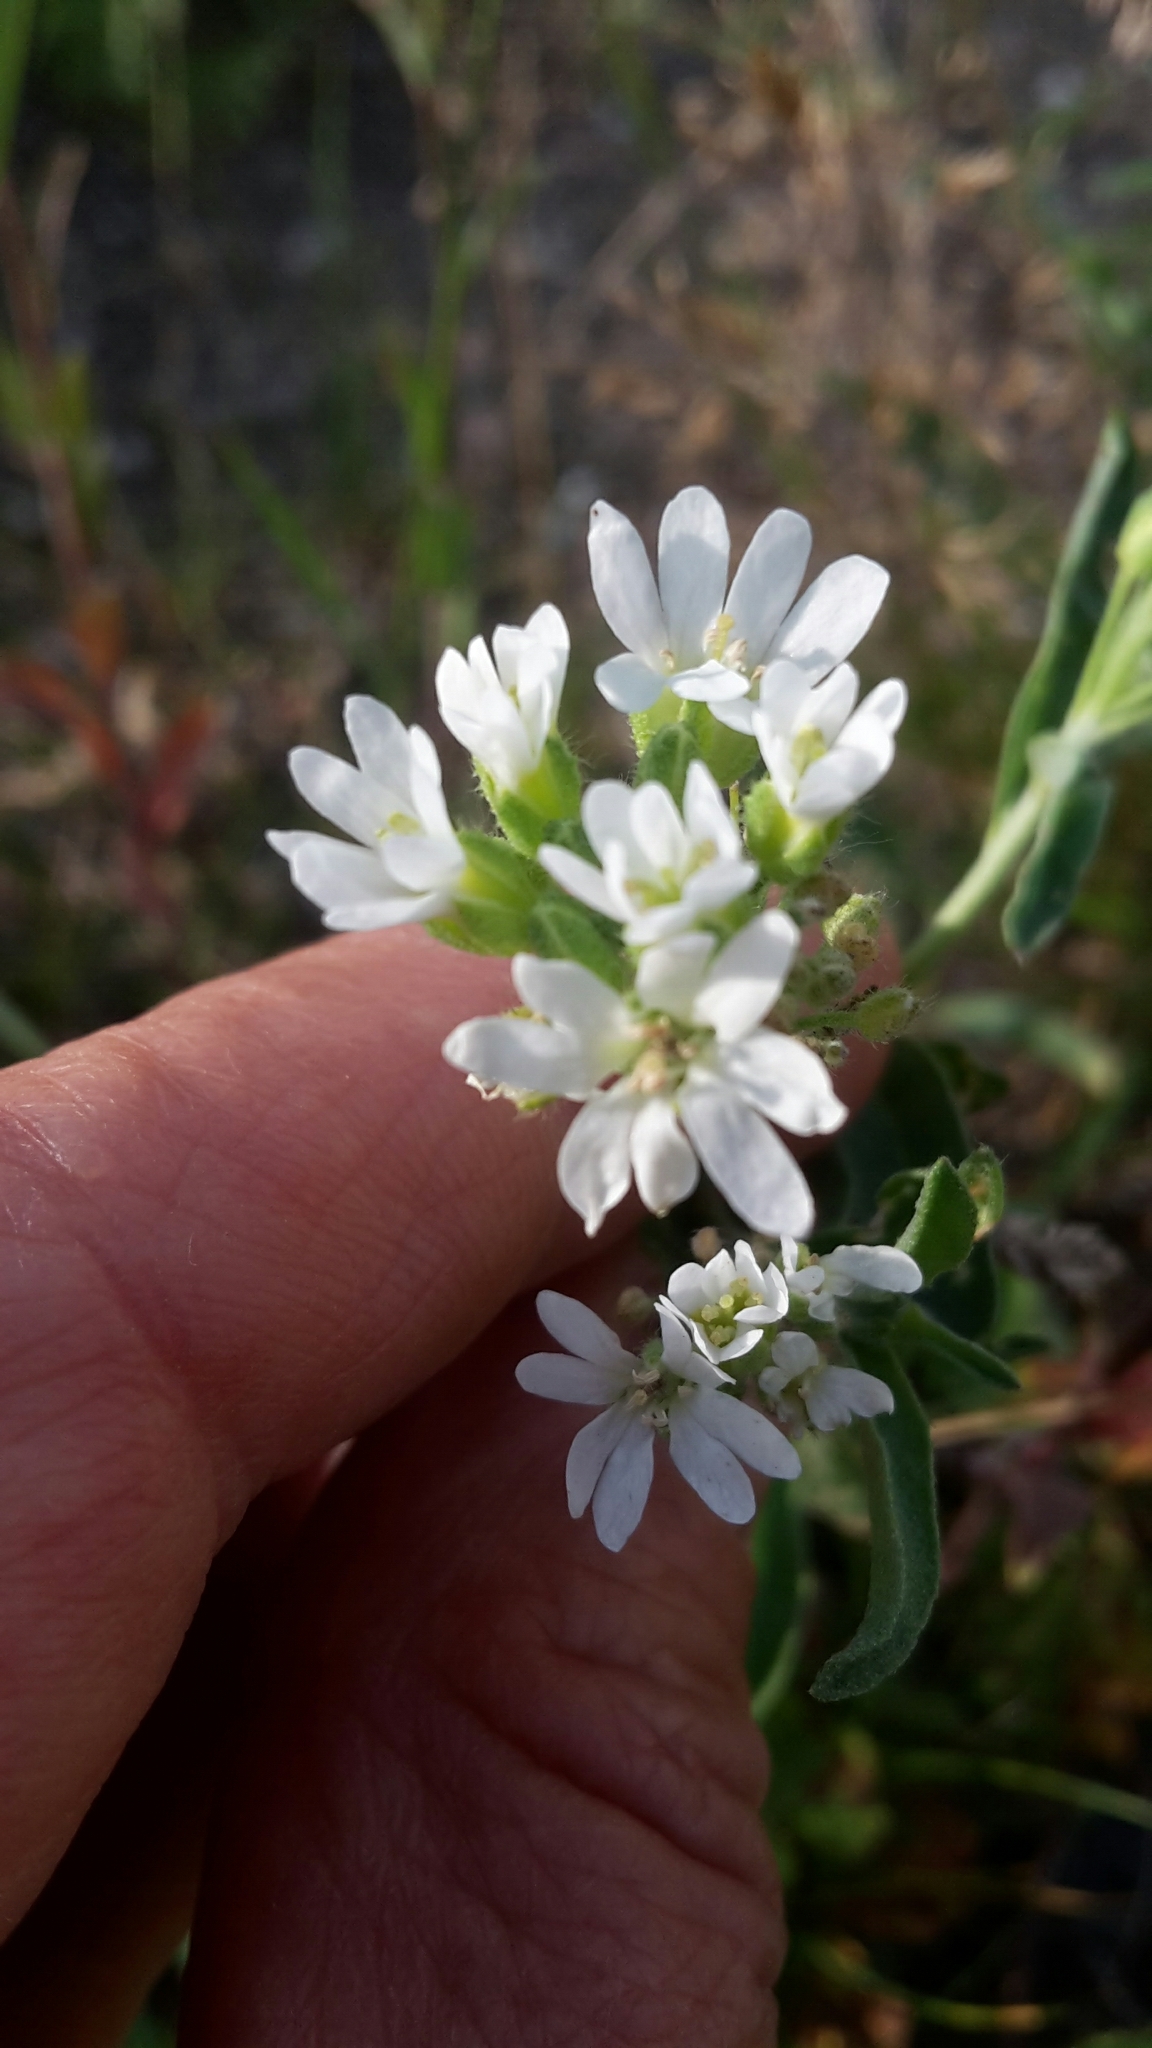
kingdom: Plantae
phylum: Tracheophyta
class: Magnoliopsida
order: Brassicales
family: Brassicaceae
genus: Berteroa
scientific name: Berteroa incana
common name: Hoary alison
